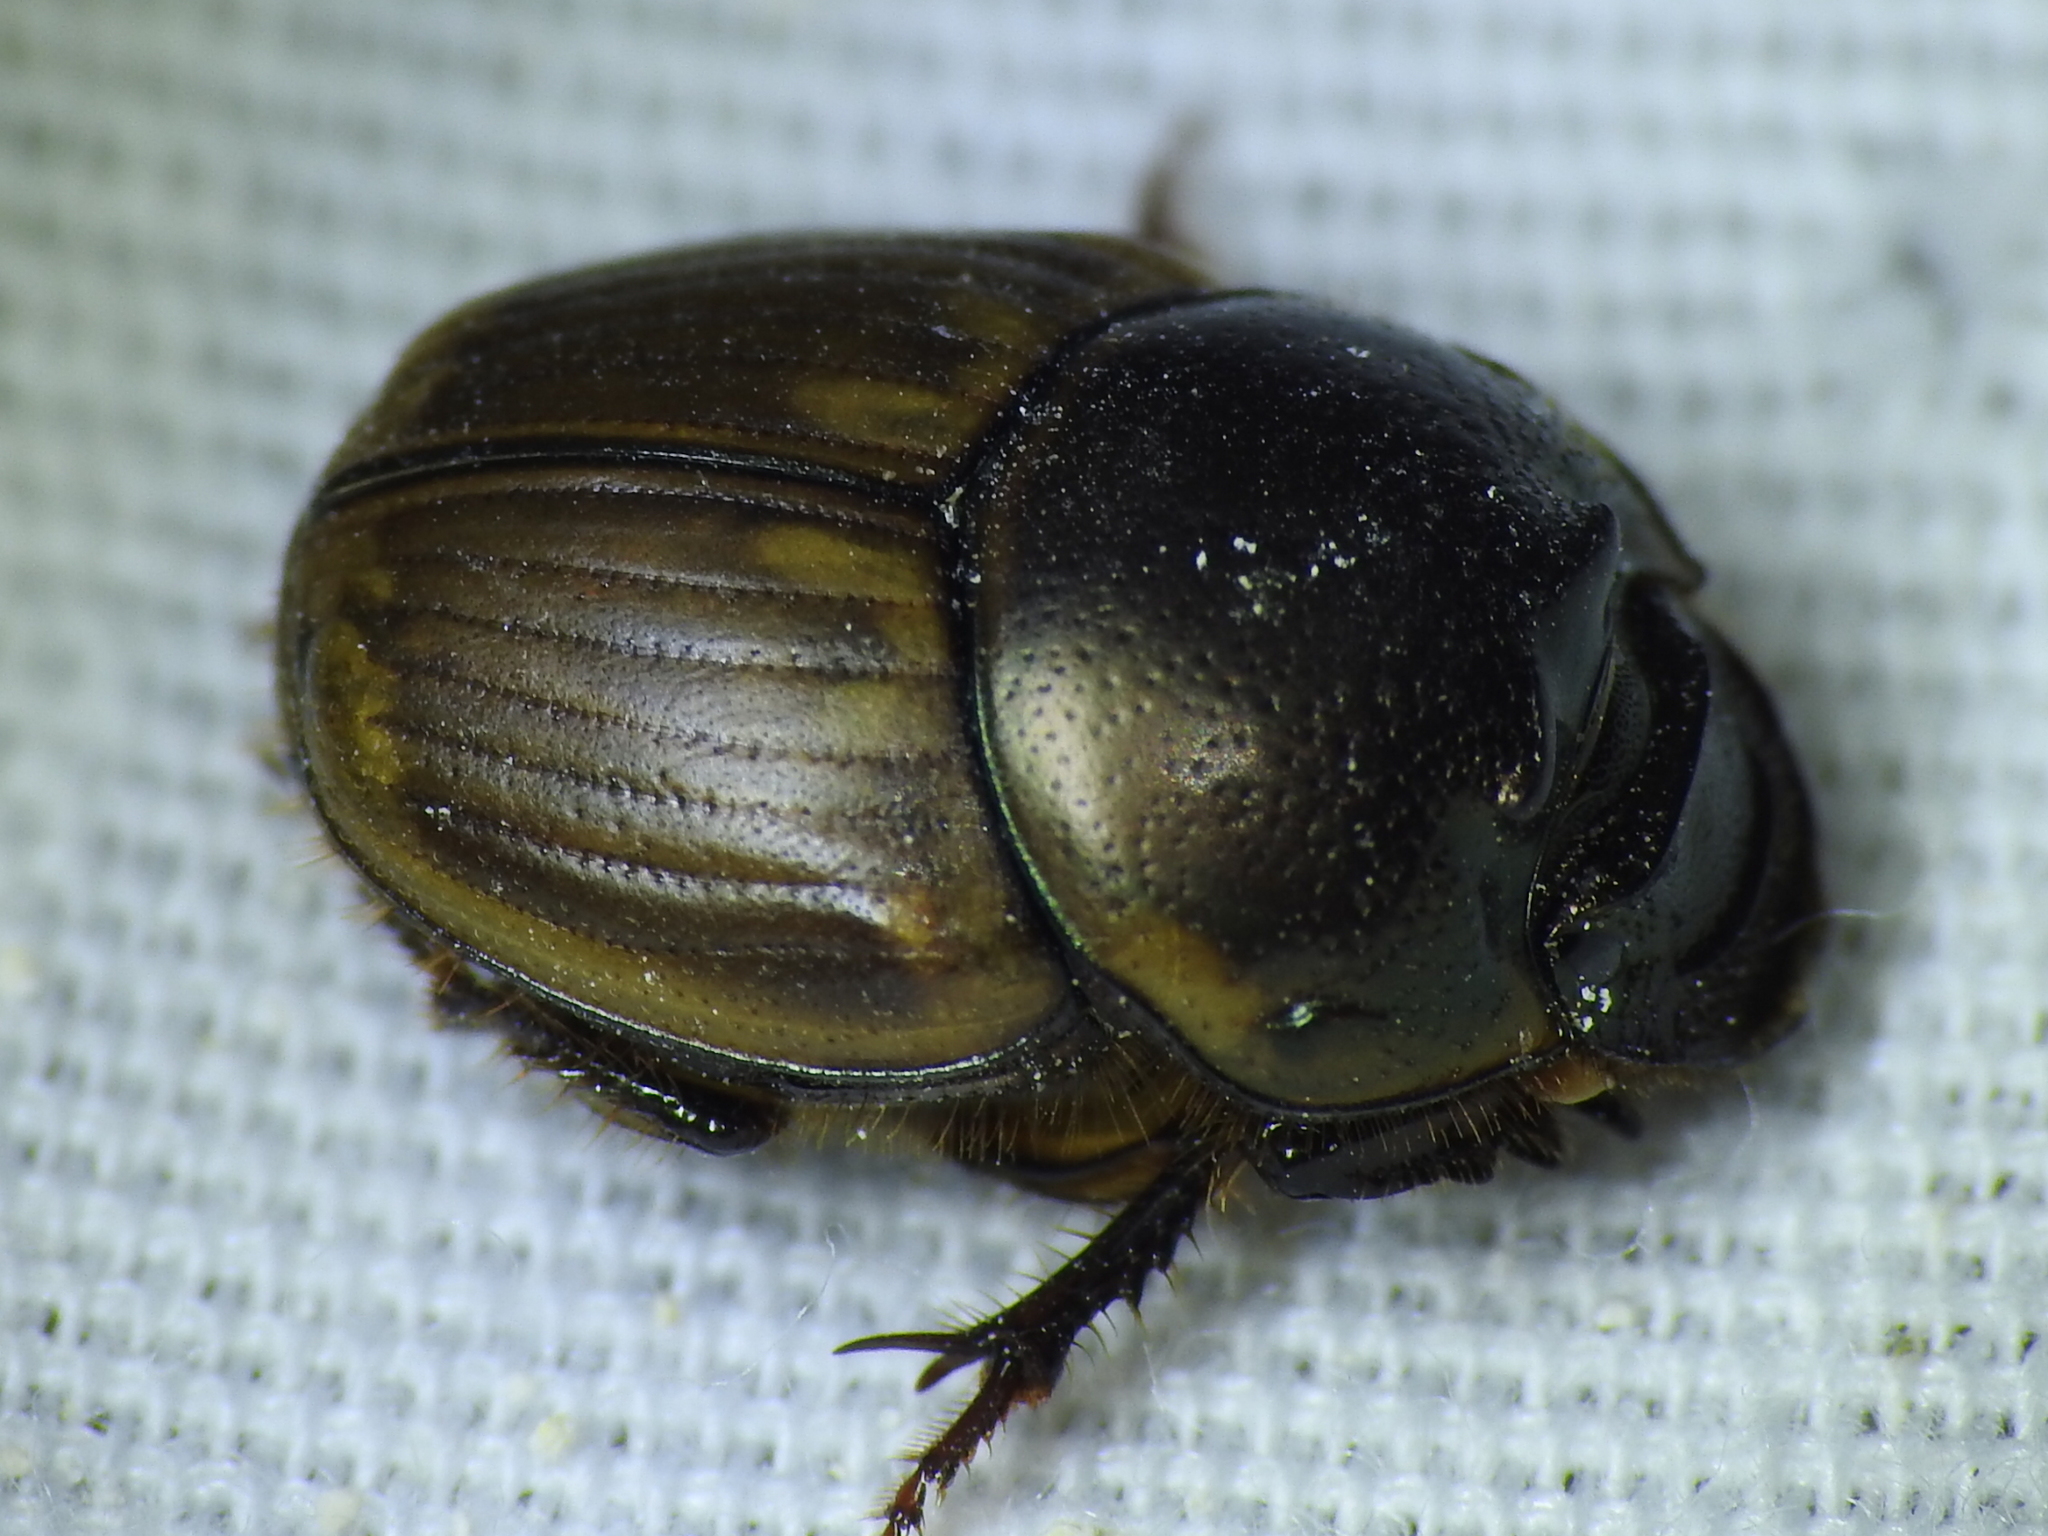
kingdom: Animalia
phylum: Arthropoda
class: Insecta
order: Coleoptera
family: Scarabaeidae
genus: Digitonthophagus
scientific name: Digitonthophagus gazella
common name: Brown dung beetle
